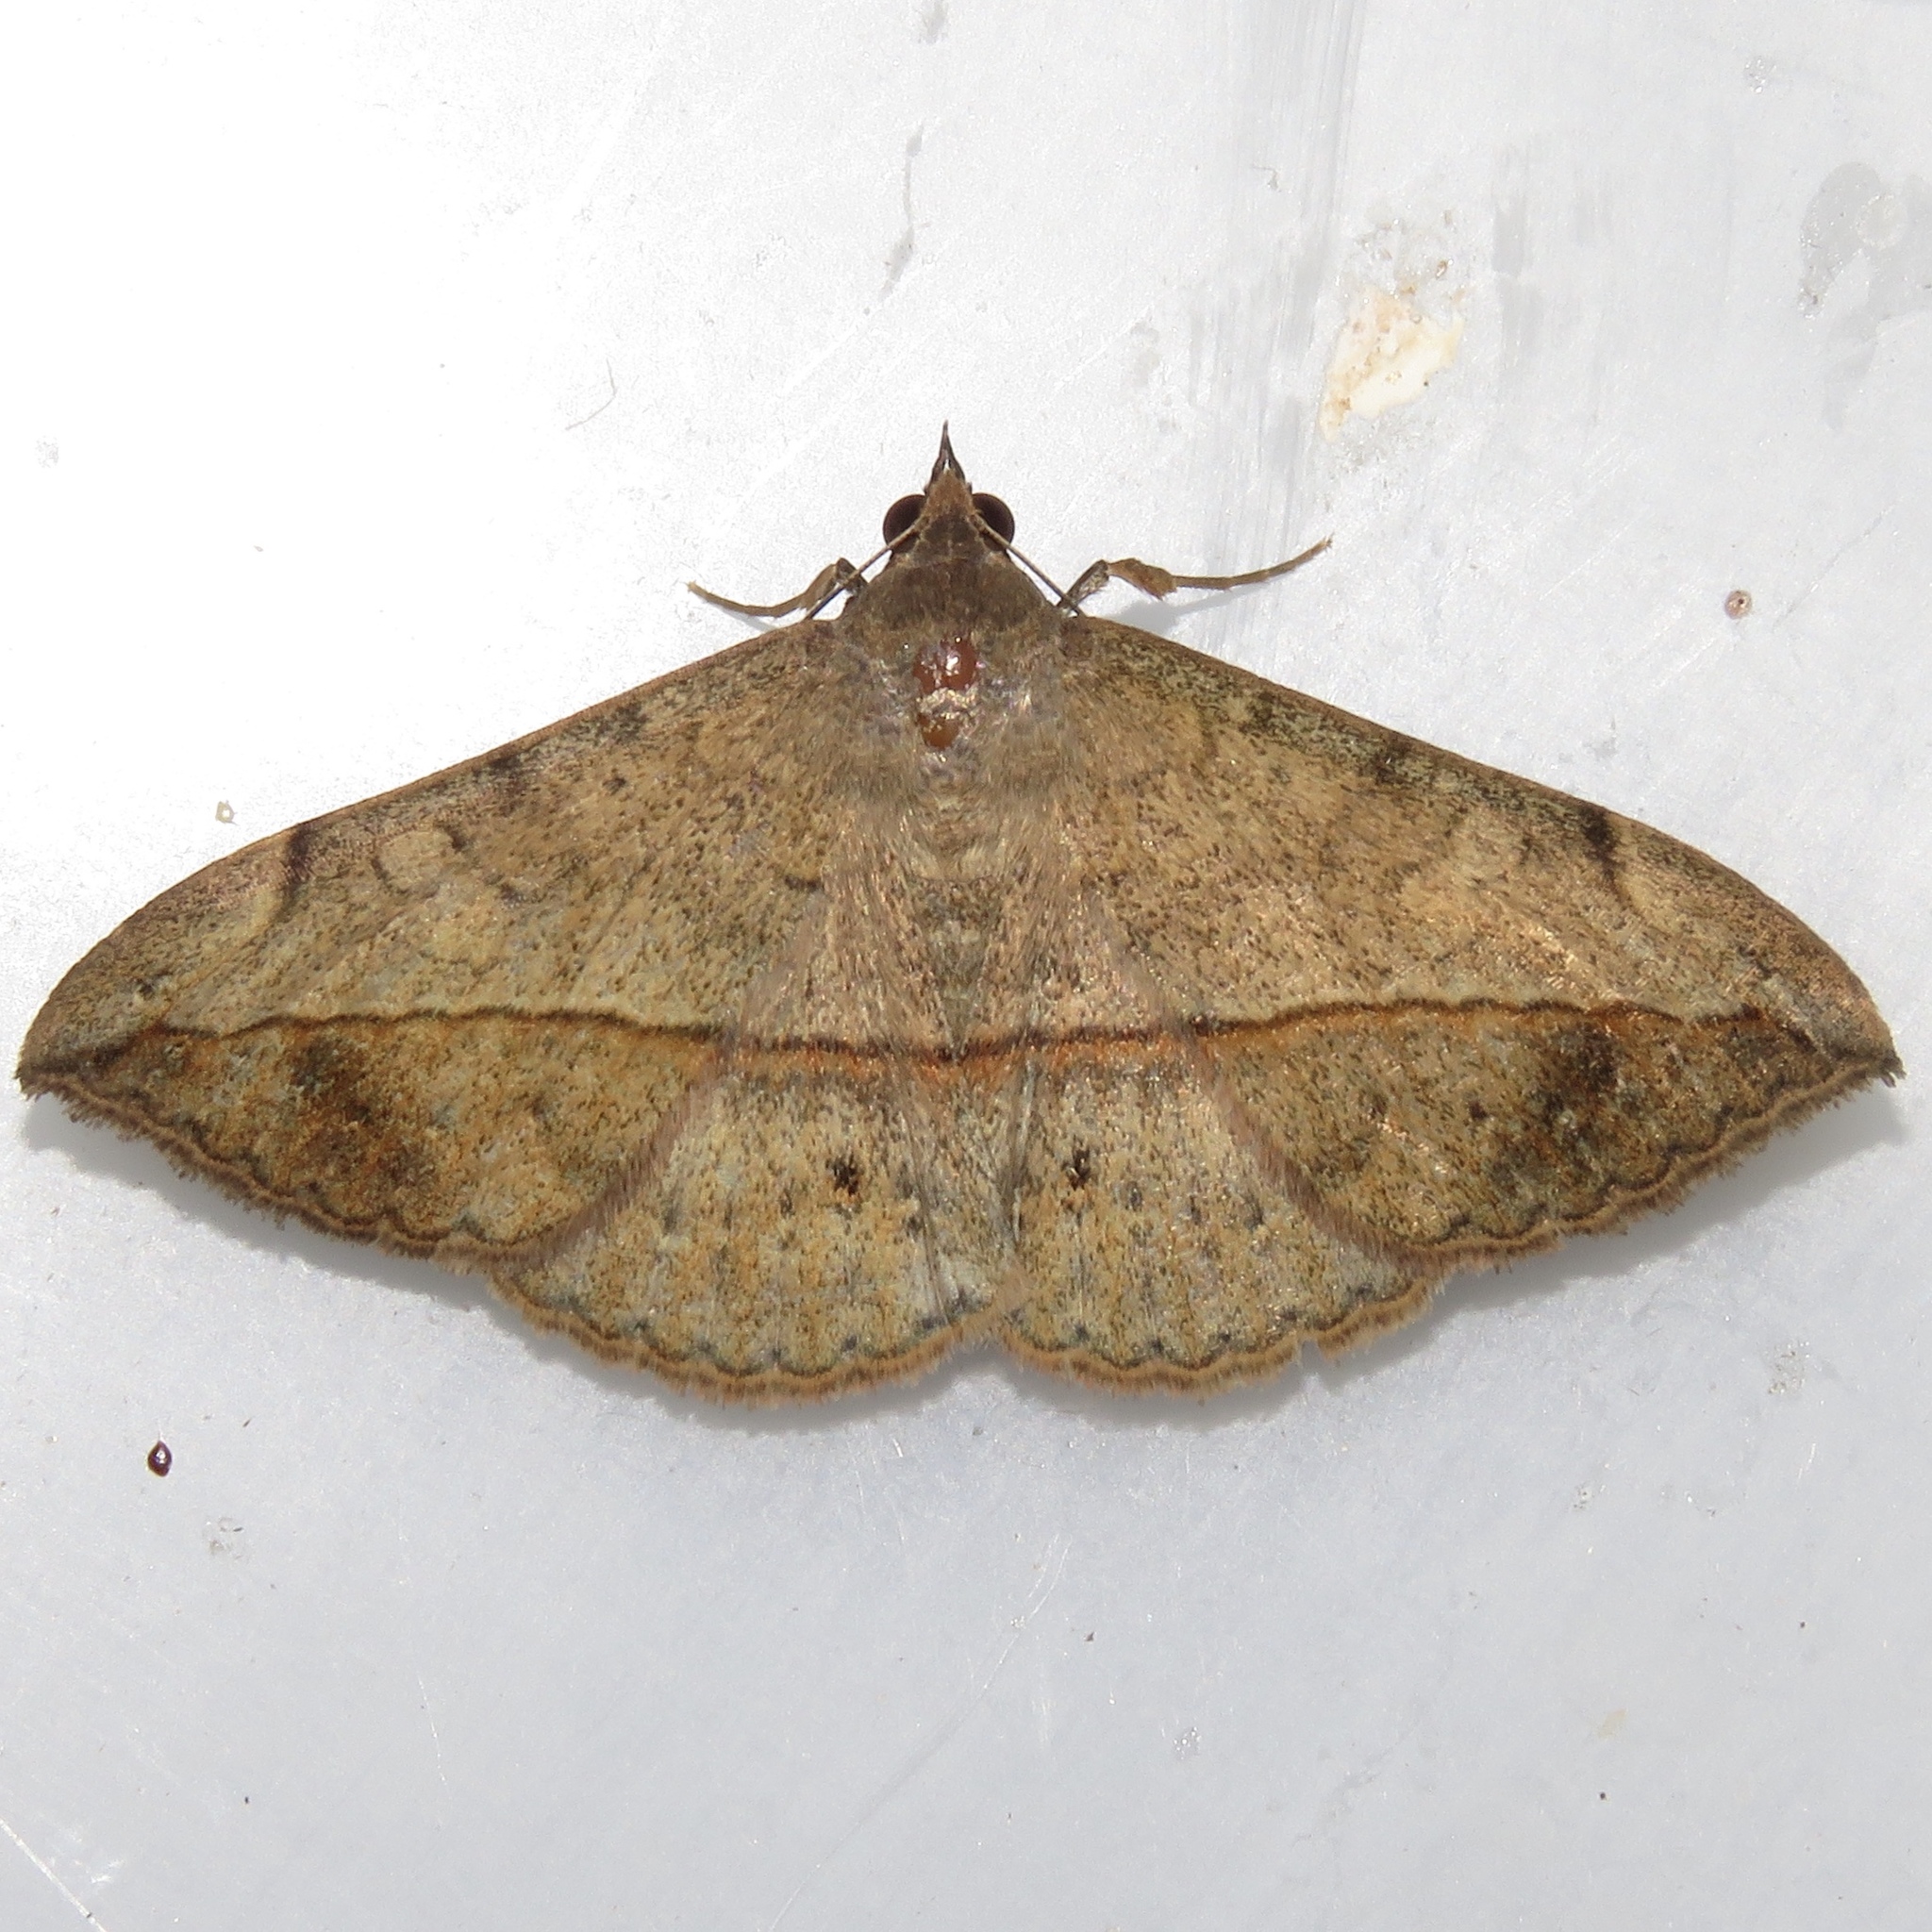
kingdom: Animalia
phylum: Arthropoda
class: Insecta
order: Lepidoptera
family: Erebidae
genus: Anticarsia
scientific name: Anticarsia gemmatalis
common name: Cutworm moth
